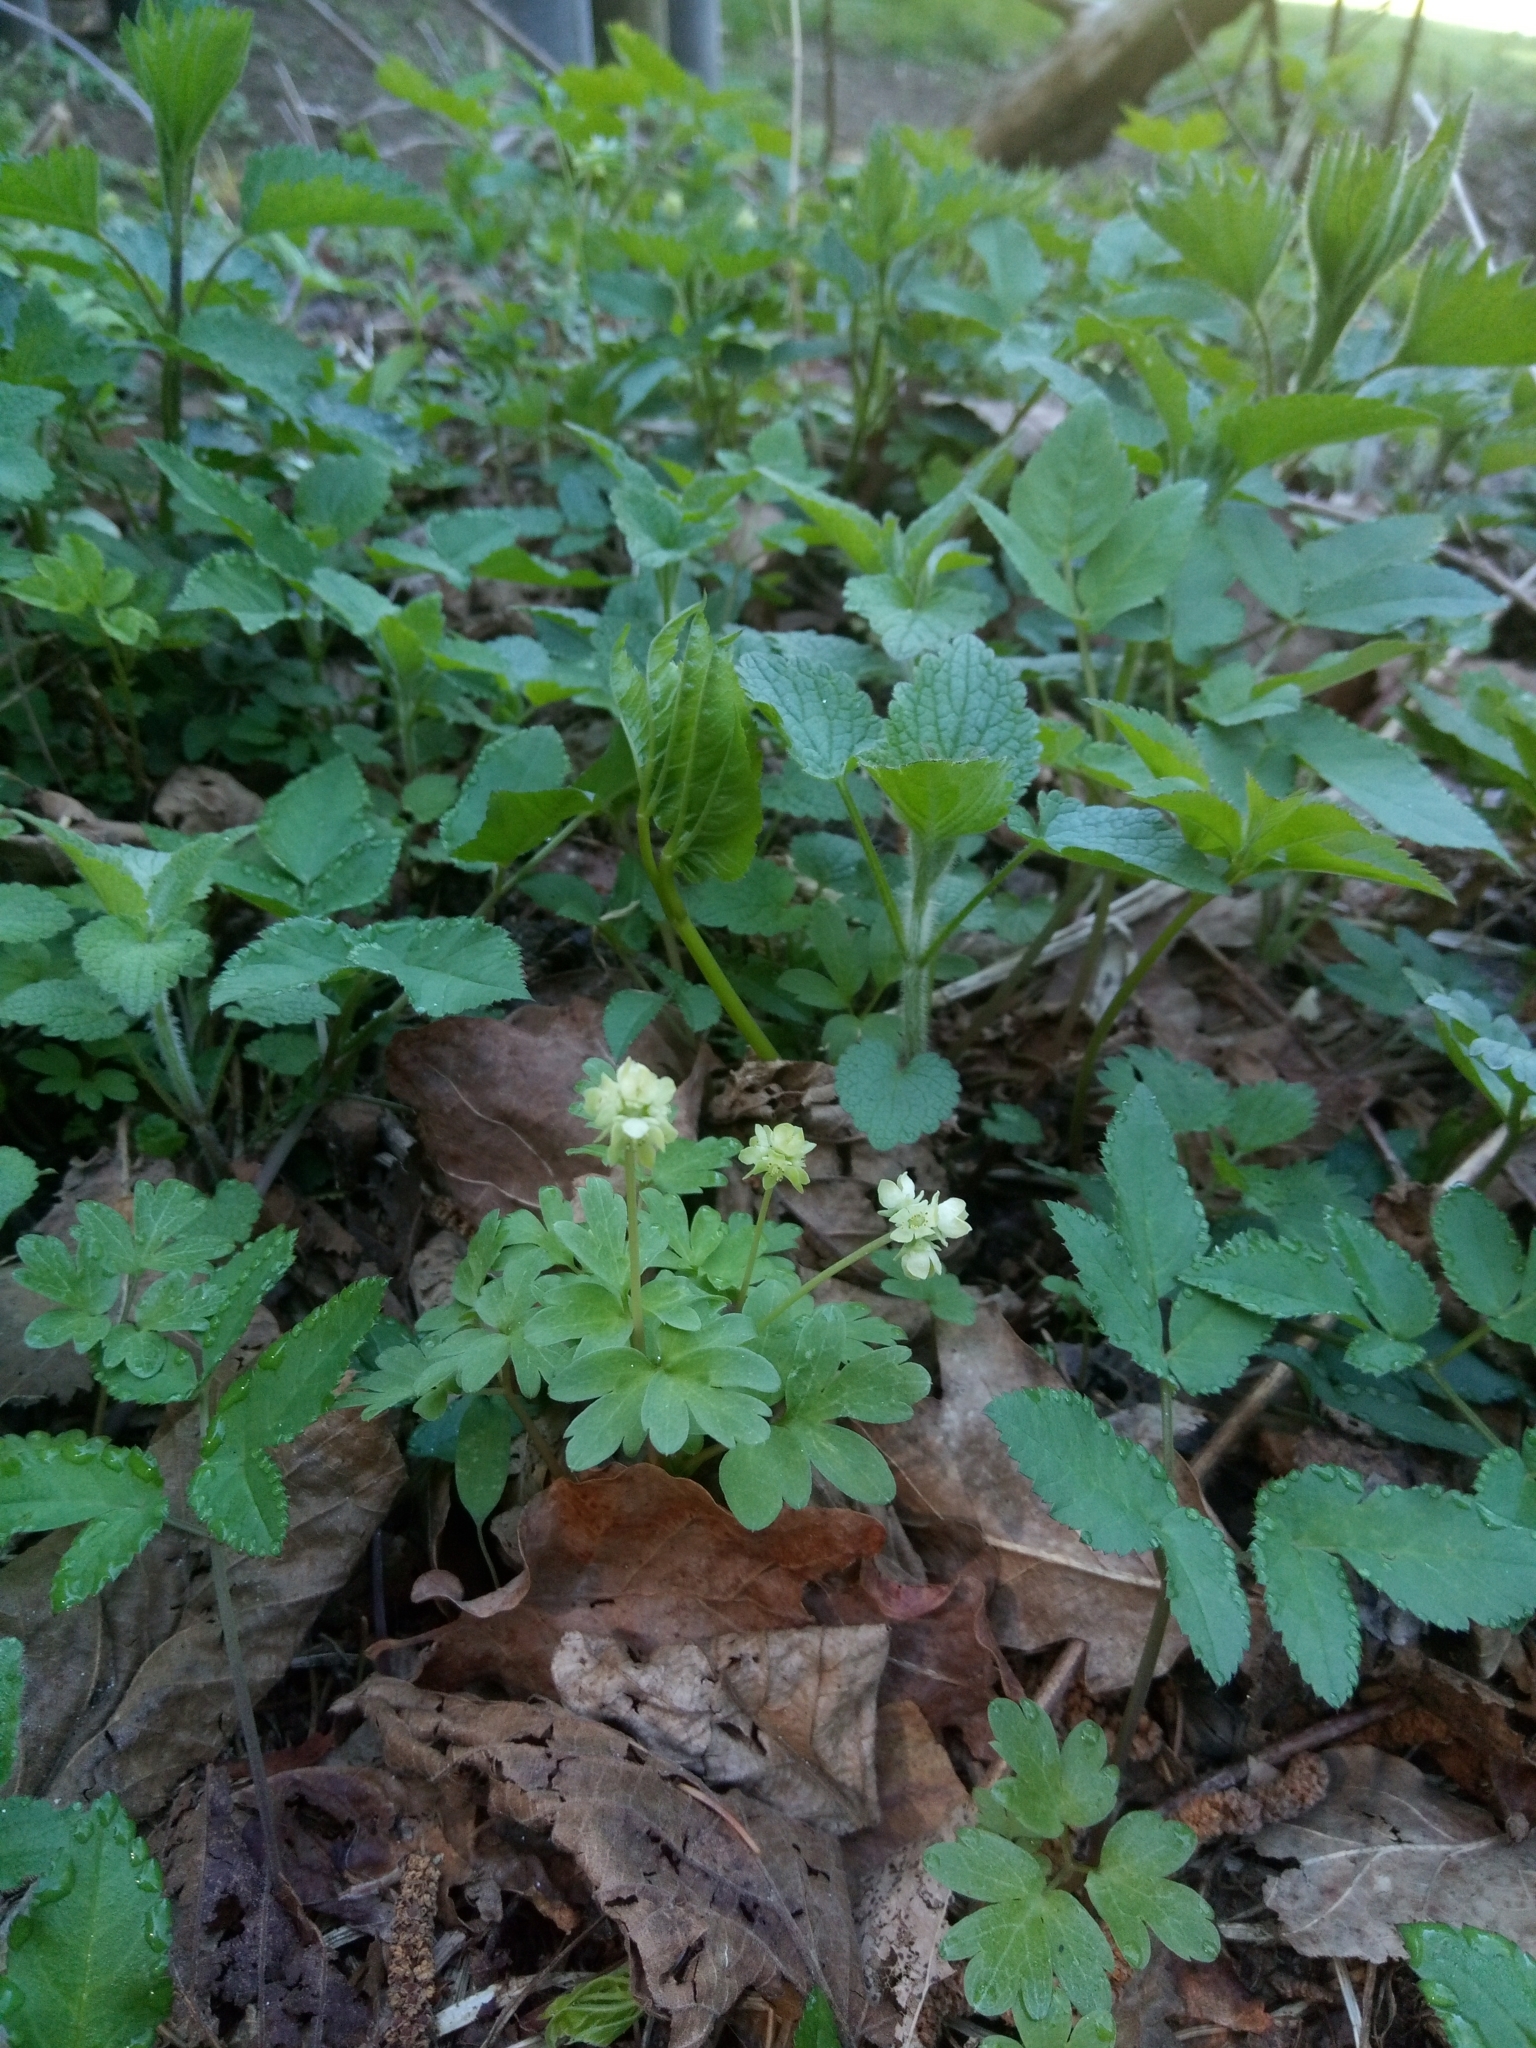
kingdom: Plantae
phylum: Tracheophyta
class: Magnoliopsida
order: Dipsacales
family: Viburnaceae
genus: Adoxa
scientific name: Adoxa moschatellina
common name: Moschatel
